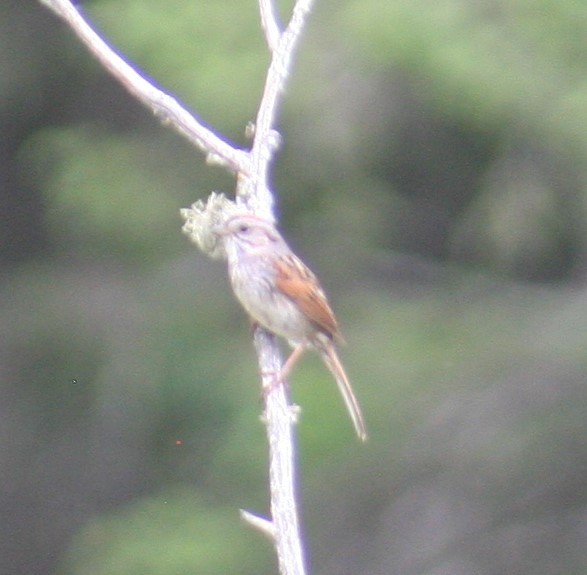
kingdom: Animalia
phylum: Chordata
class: Aves
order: Passeriformes
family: Passerellidae
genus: Melospiza
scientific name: Melospiza georgiana
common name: Swamp sparrow
